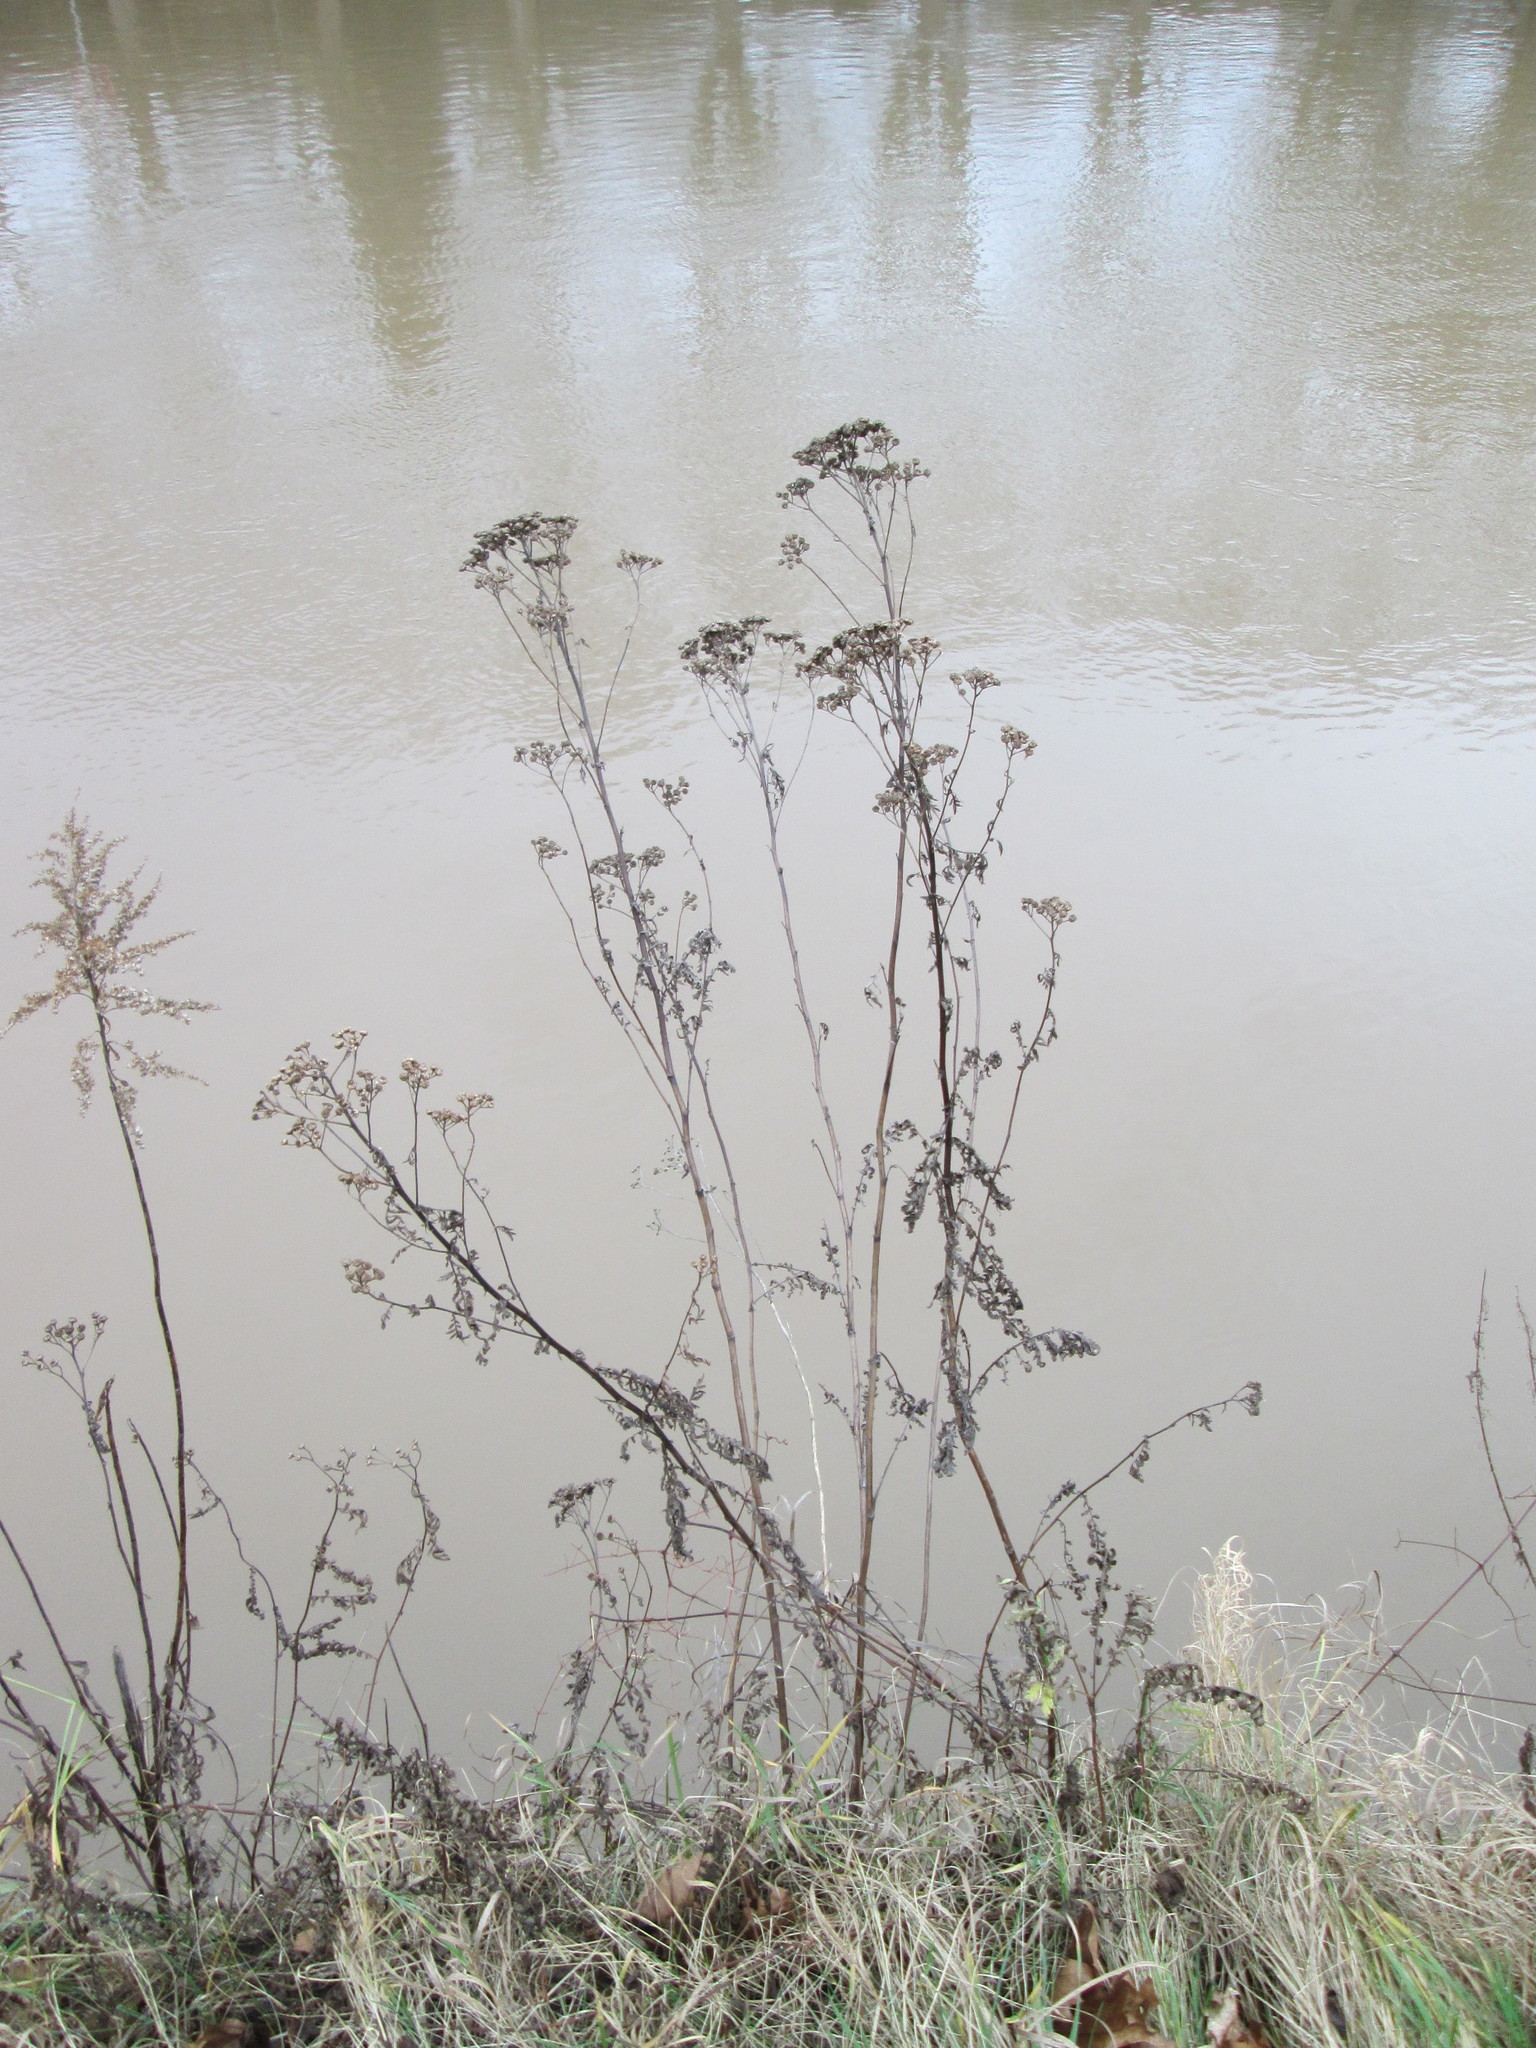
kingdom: Plantae
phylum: Tracheophyta
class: Magnoliopsida
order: Asterales
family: Asteraceae
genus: Tanacetum
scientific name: Tanacetum vulgare
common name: Common tansy
